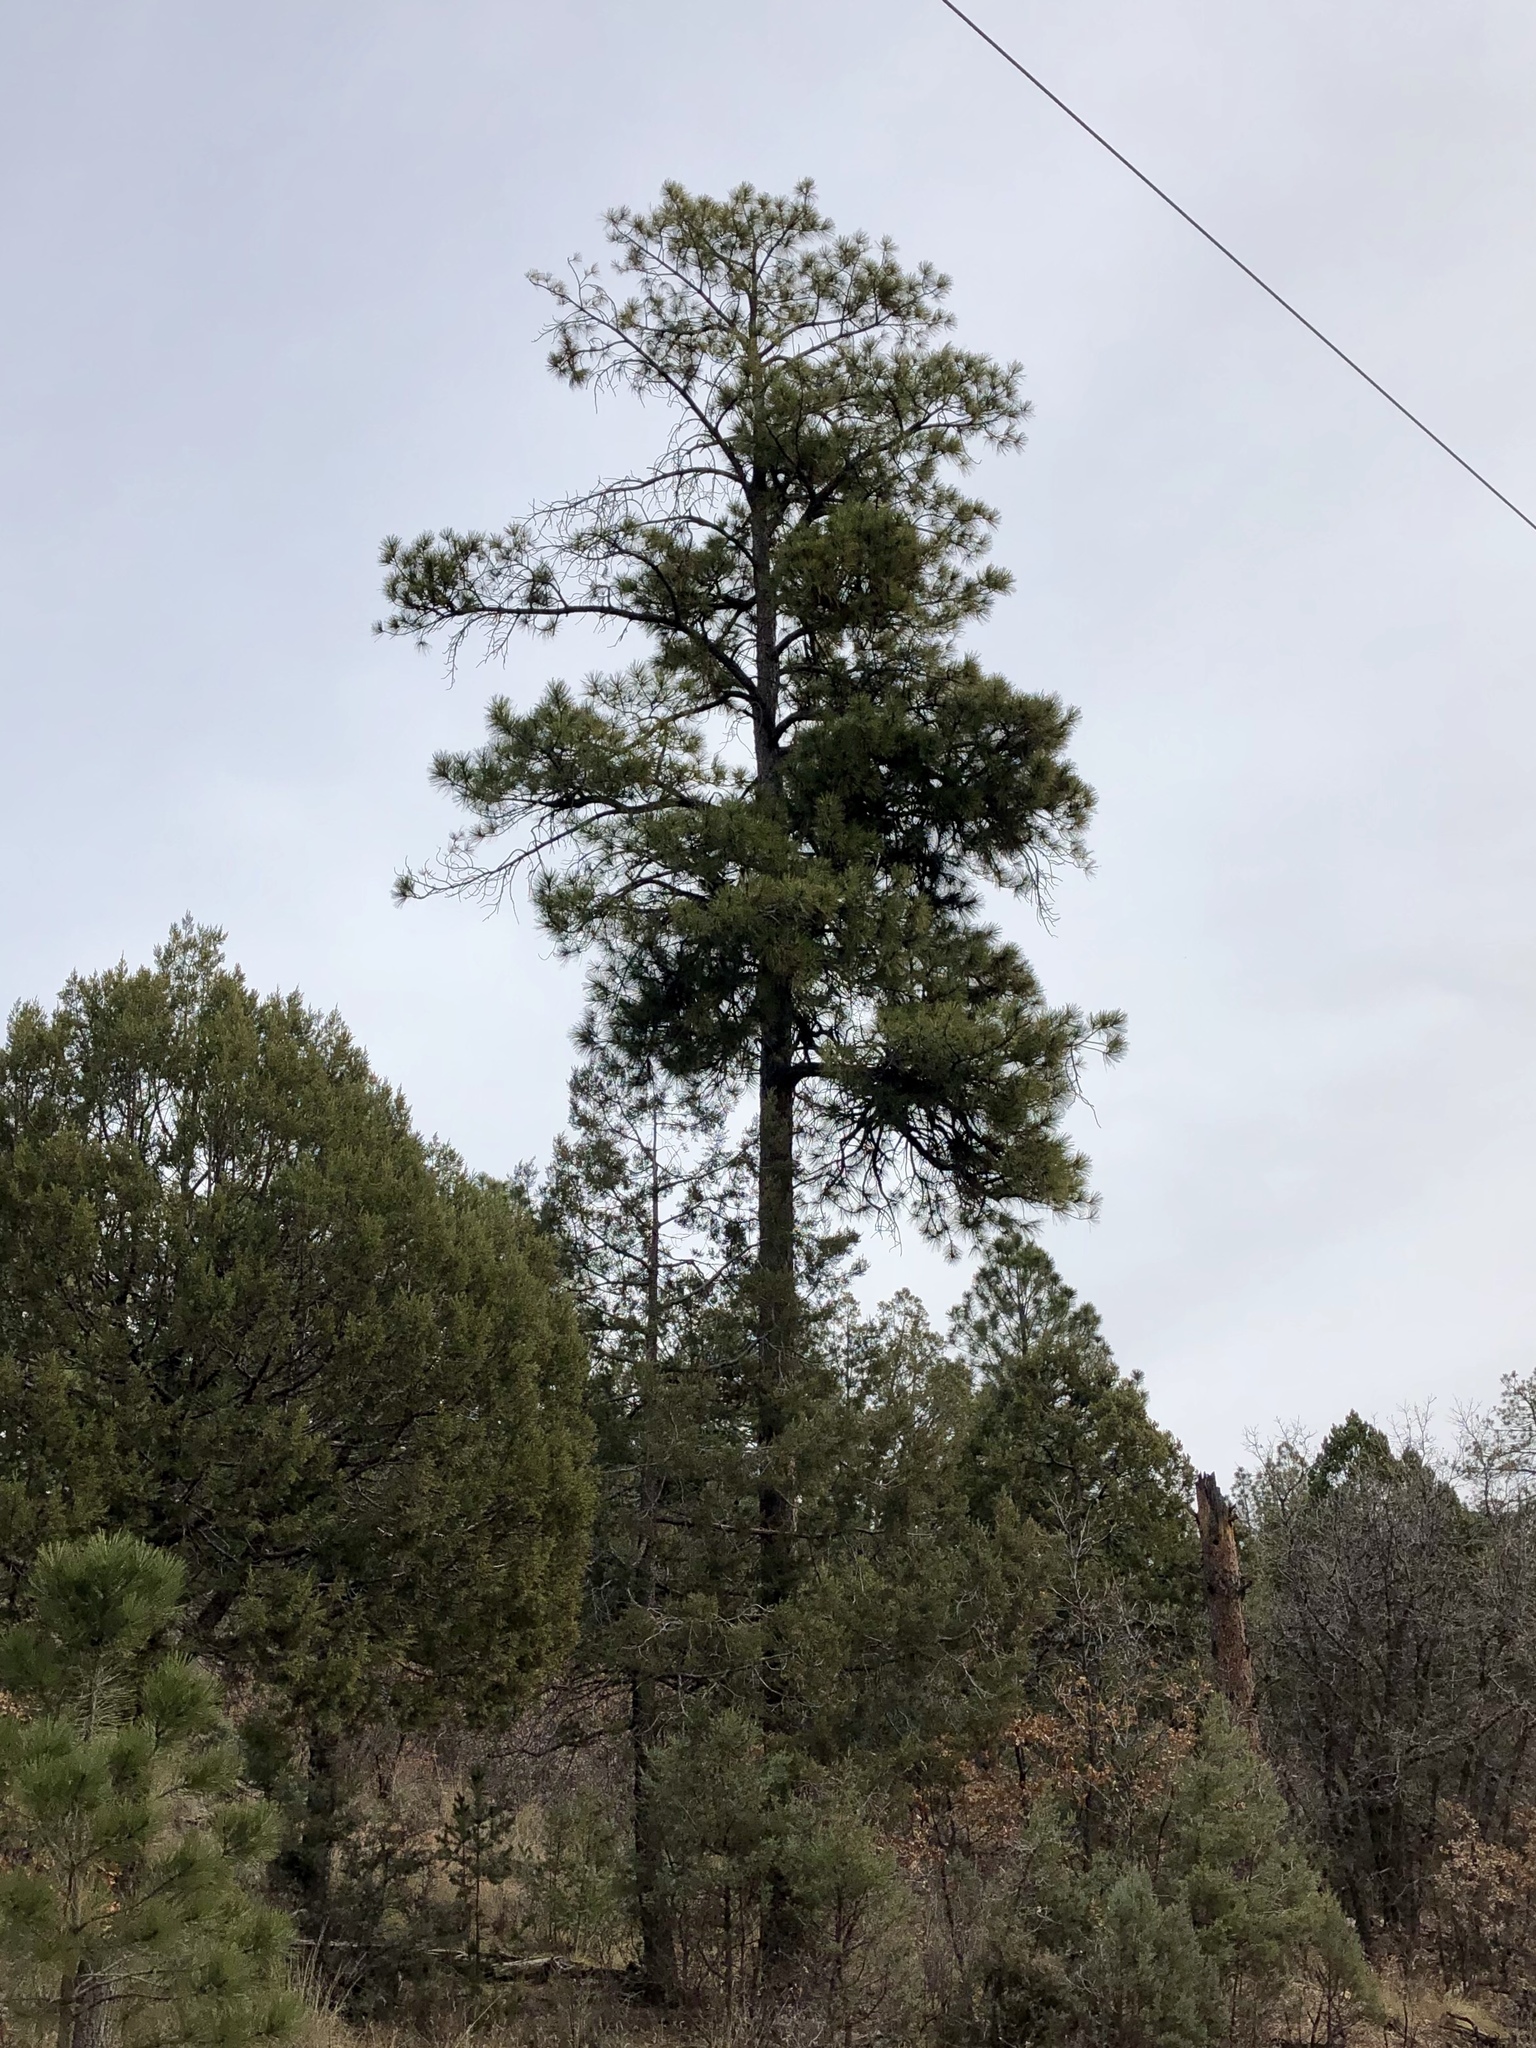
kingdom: Plantae
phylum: Tracheophyta
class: Pinopsida
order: Pinales
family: Pinaceae
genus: Pinus
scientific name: Pinus ponderosa
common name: Western yellow-pine
